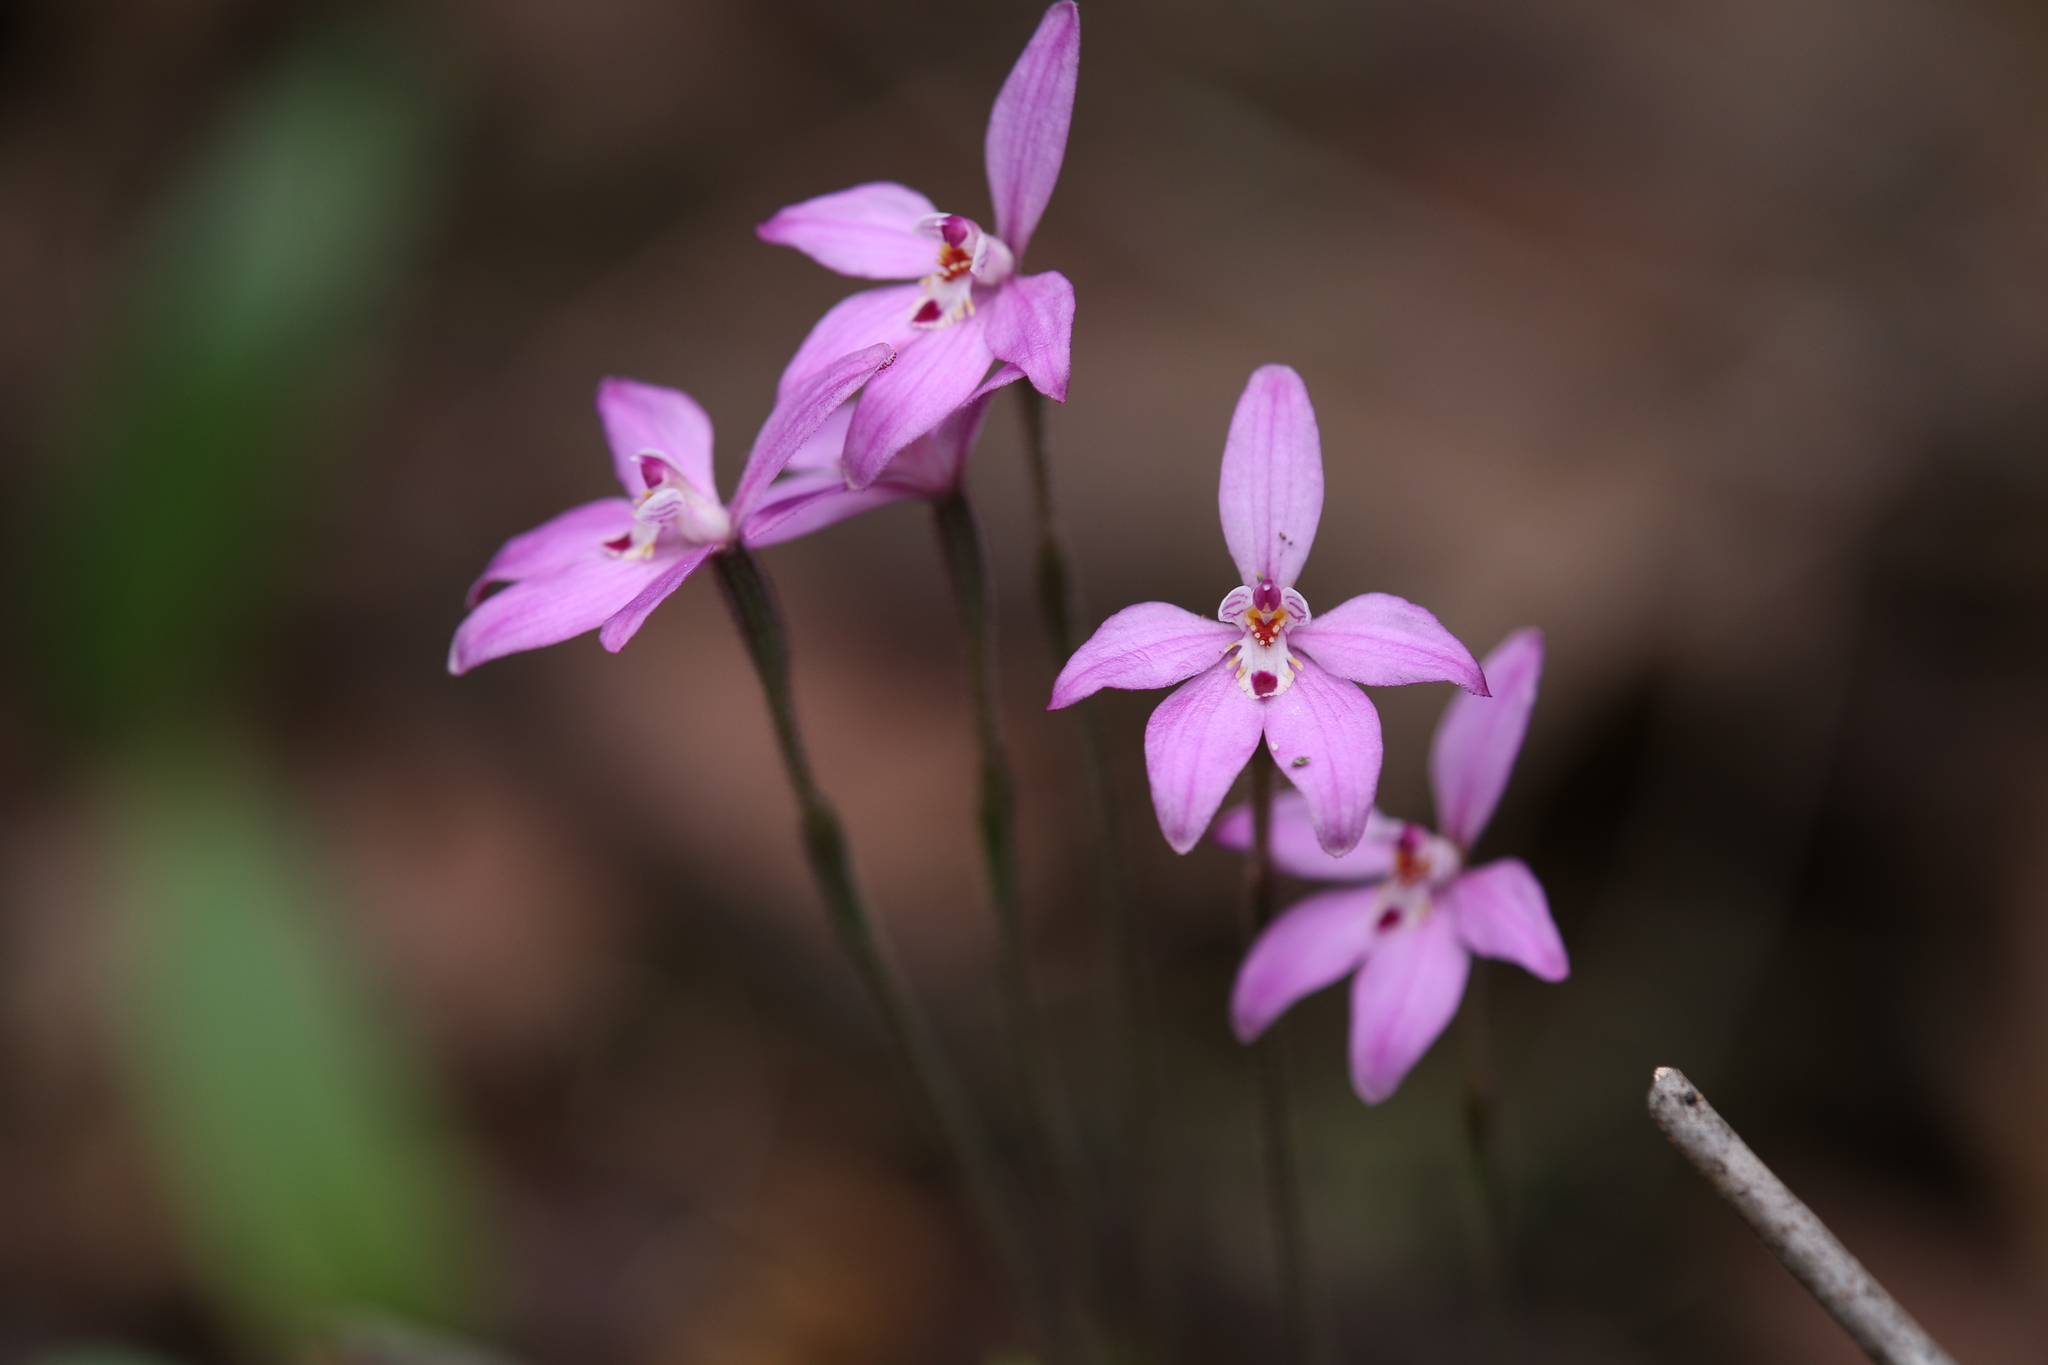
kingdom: Plantae
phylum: Tracheophyta
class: Liliopsida
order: Asparagales
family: Orchidaceae
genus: Caladenia
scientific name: Caladenia reptans
